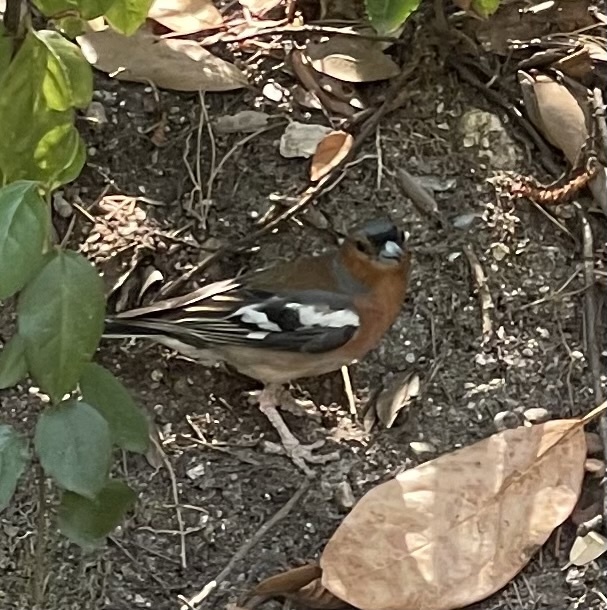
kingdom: Animalia
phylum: Chordata
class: Aves
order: Passeriformes
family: Fringillidae
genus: Fringilla
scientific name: Fringilla coelebs
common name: Common chaffinch
